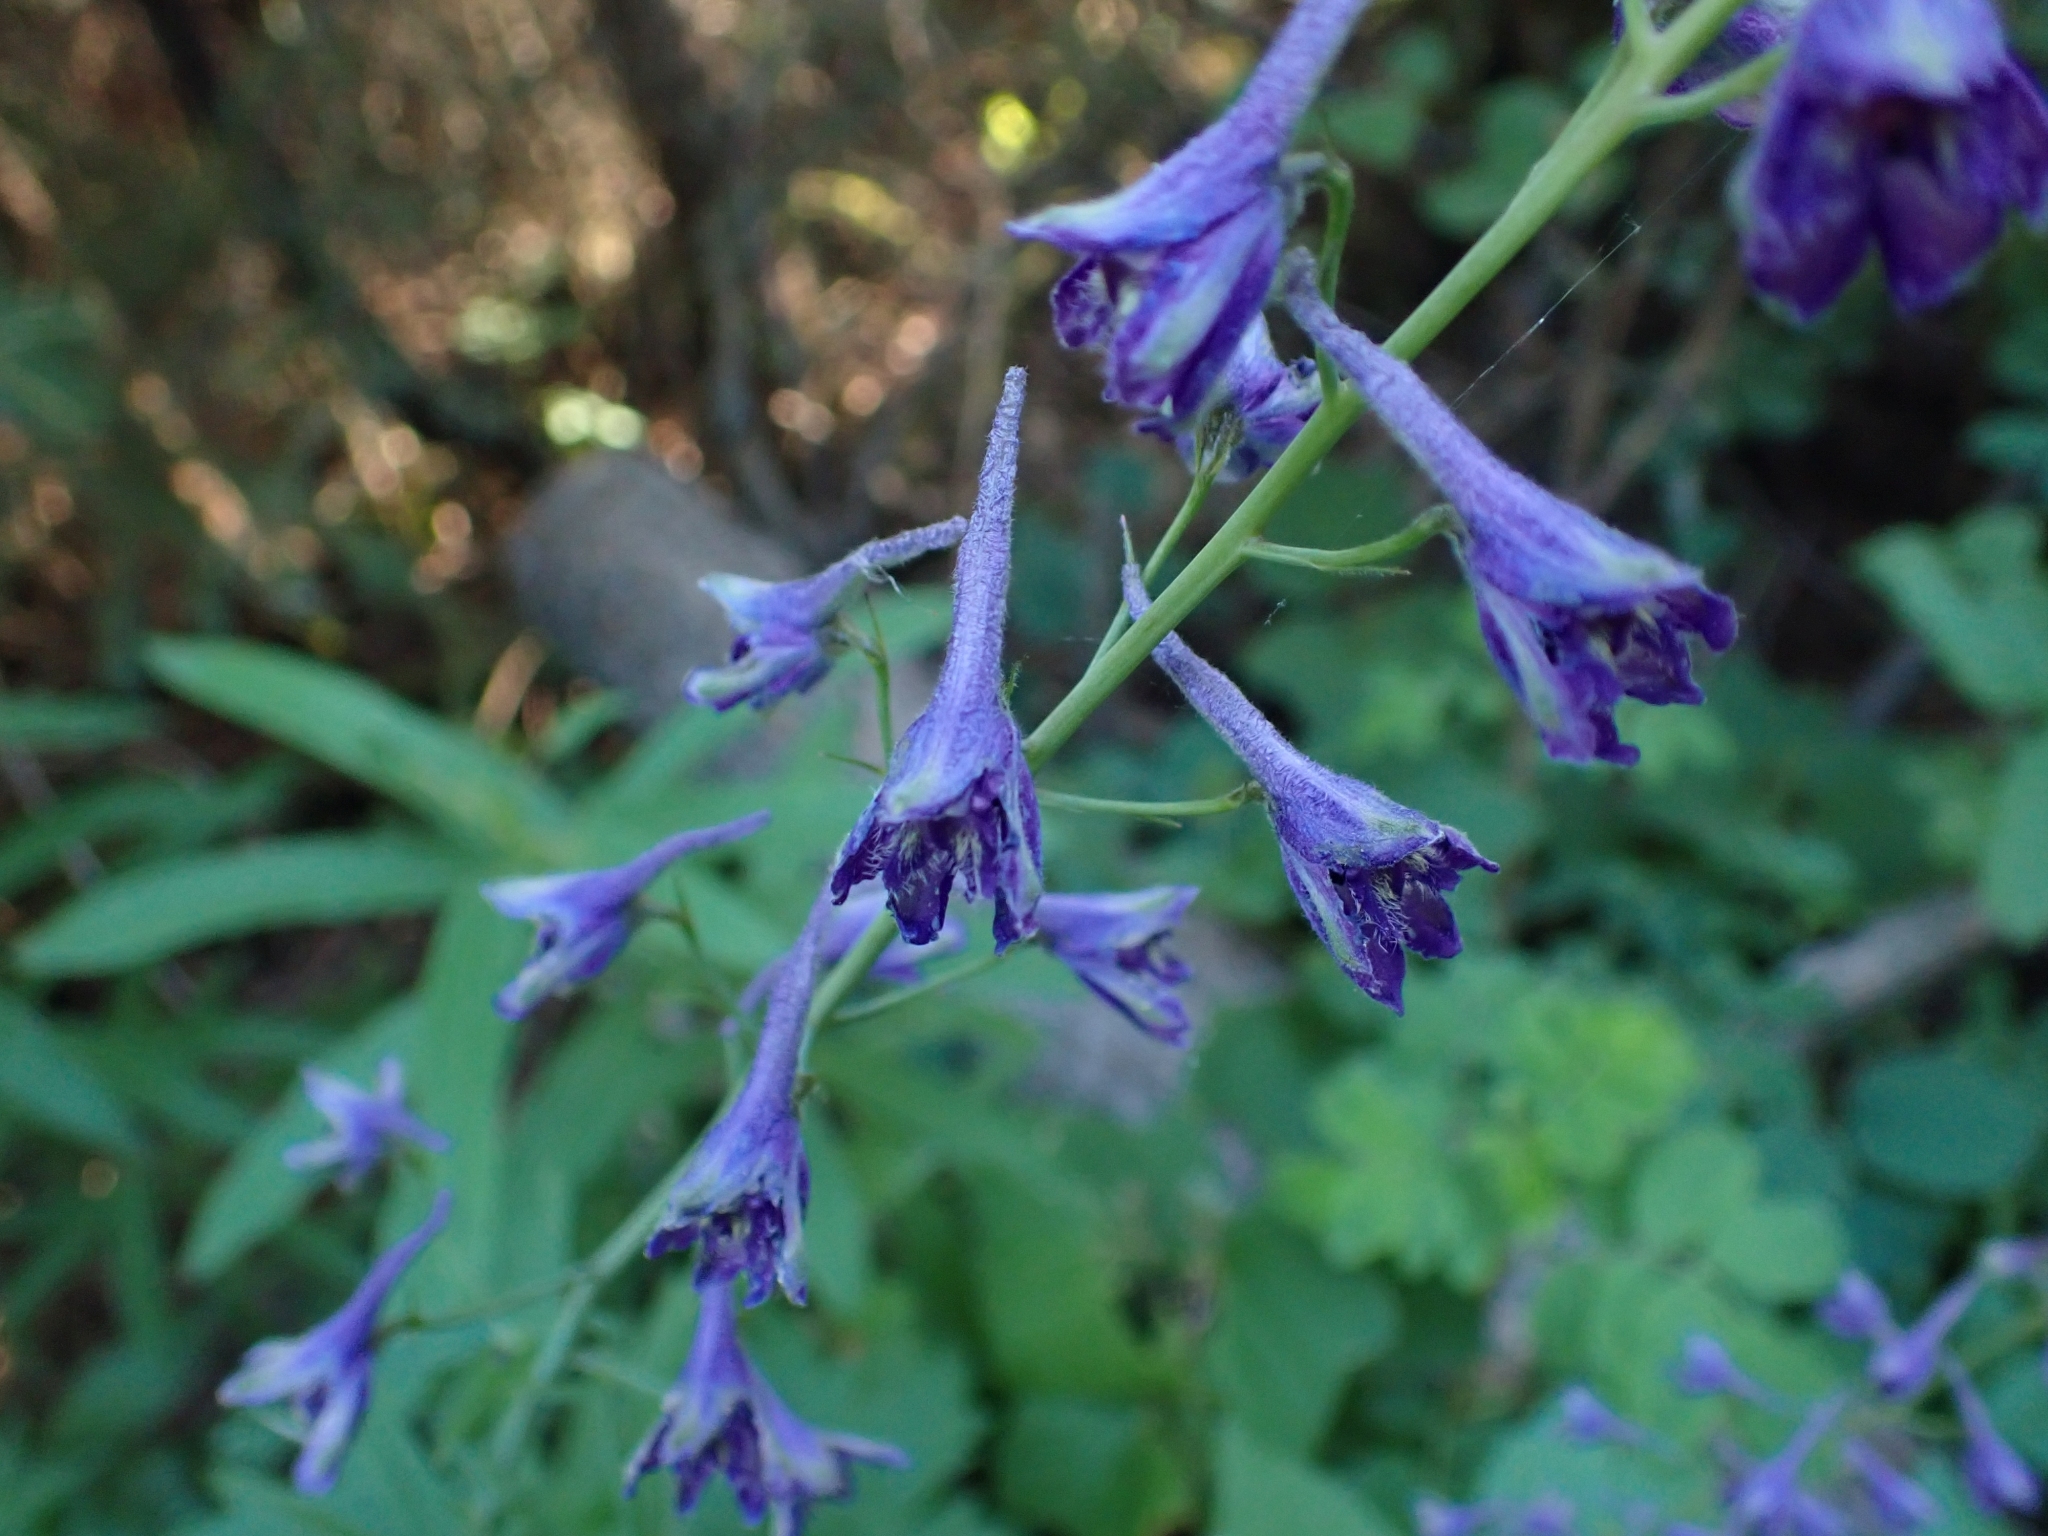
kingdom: Plantae
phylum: Tracheophyta
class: Magnoliopsida
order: Ranunculales
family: Ranunculaceae
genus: Delphinium
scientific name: Delphinium glaucum
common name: Brown's larkspur
